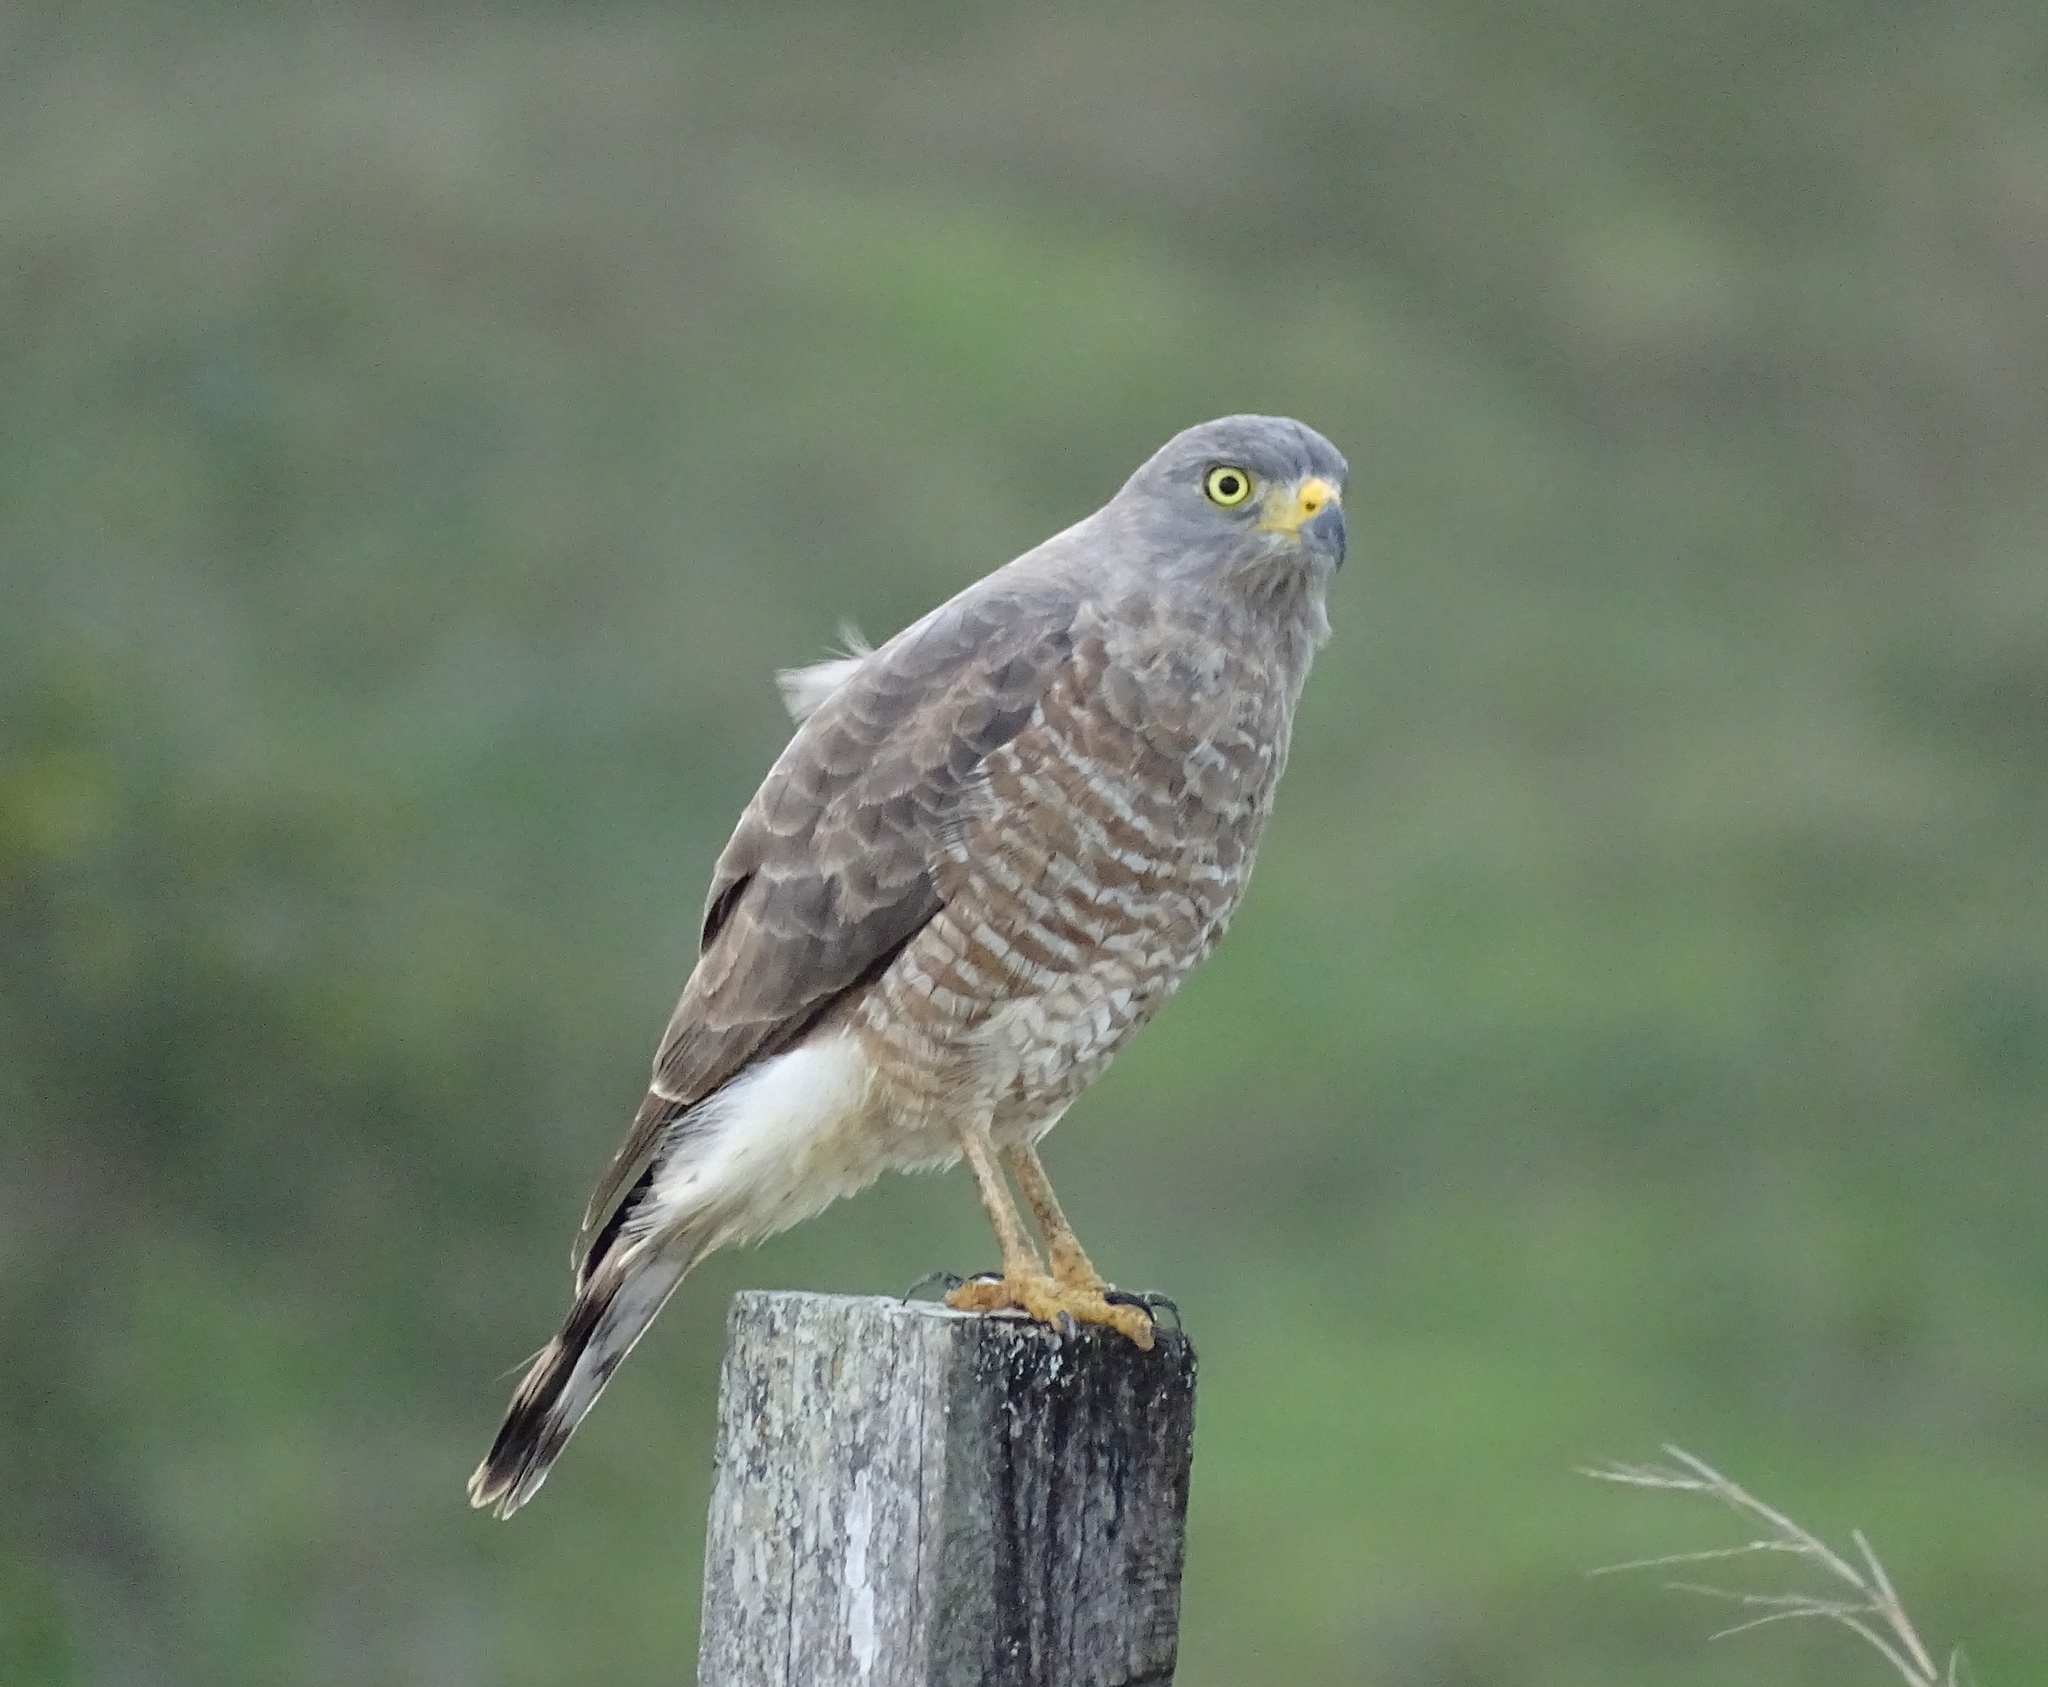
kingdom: Animalia
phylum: Chordata
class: Aves
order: Accipitriformes
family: Accipitridae
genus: Rupornis
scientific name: Rupornis magnirostris
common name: Roadside hawk
